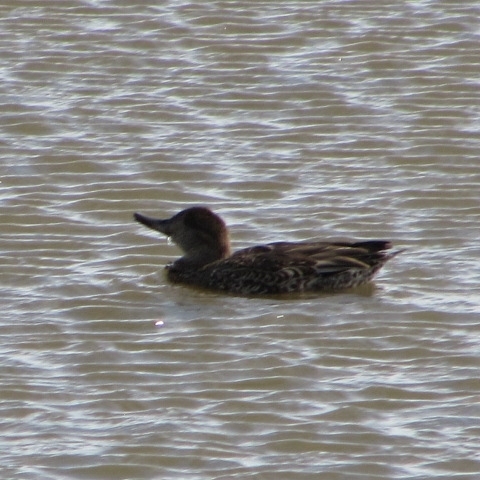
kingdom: Animalia
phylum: Chordata
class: Aves
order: Anseriformes
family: Anatidae
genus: Anas
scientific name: Anas crecca
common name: Eurasian teal
